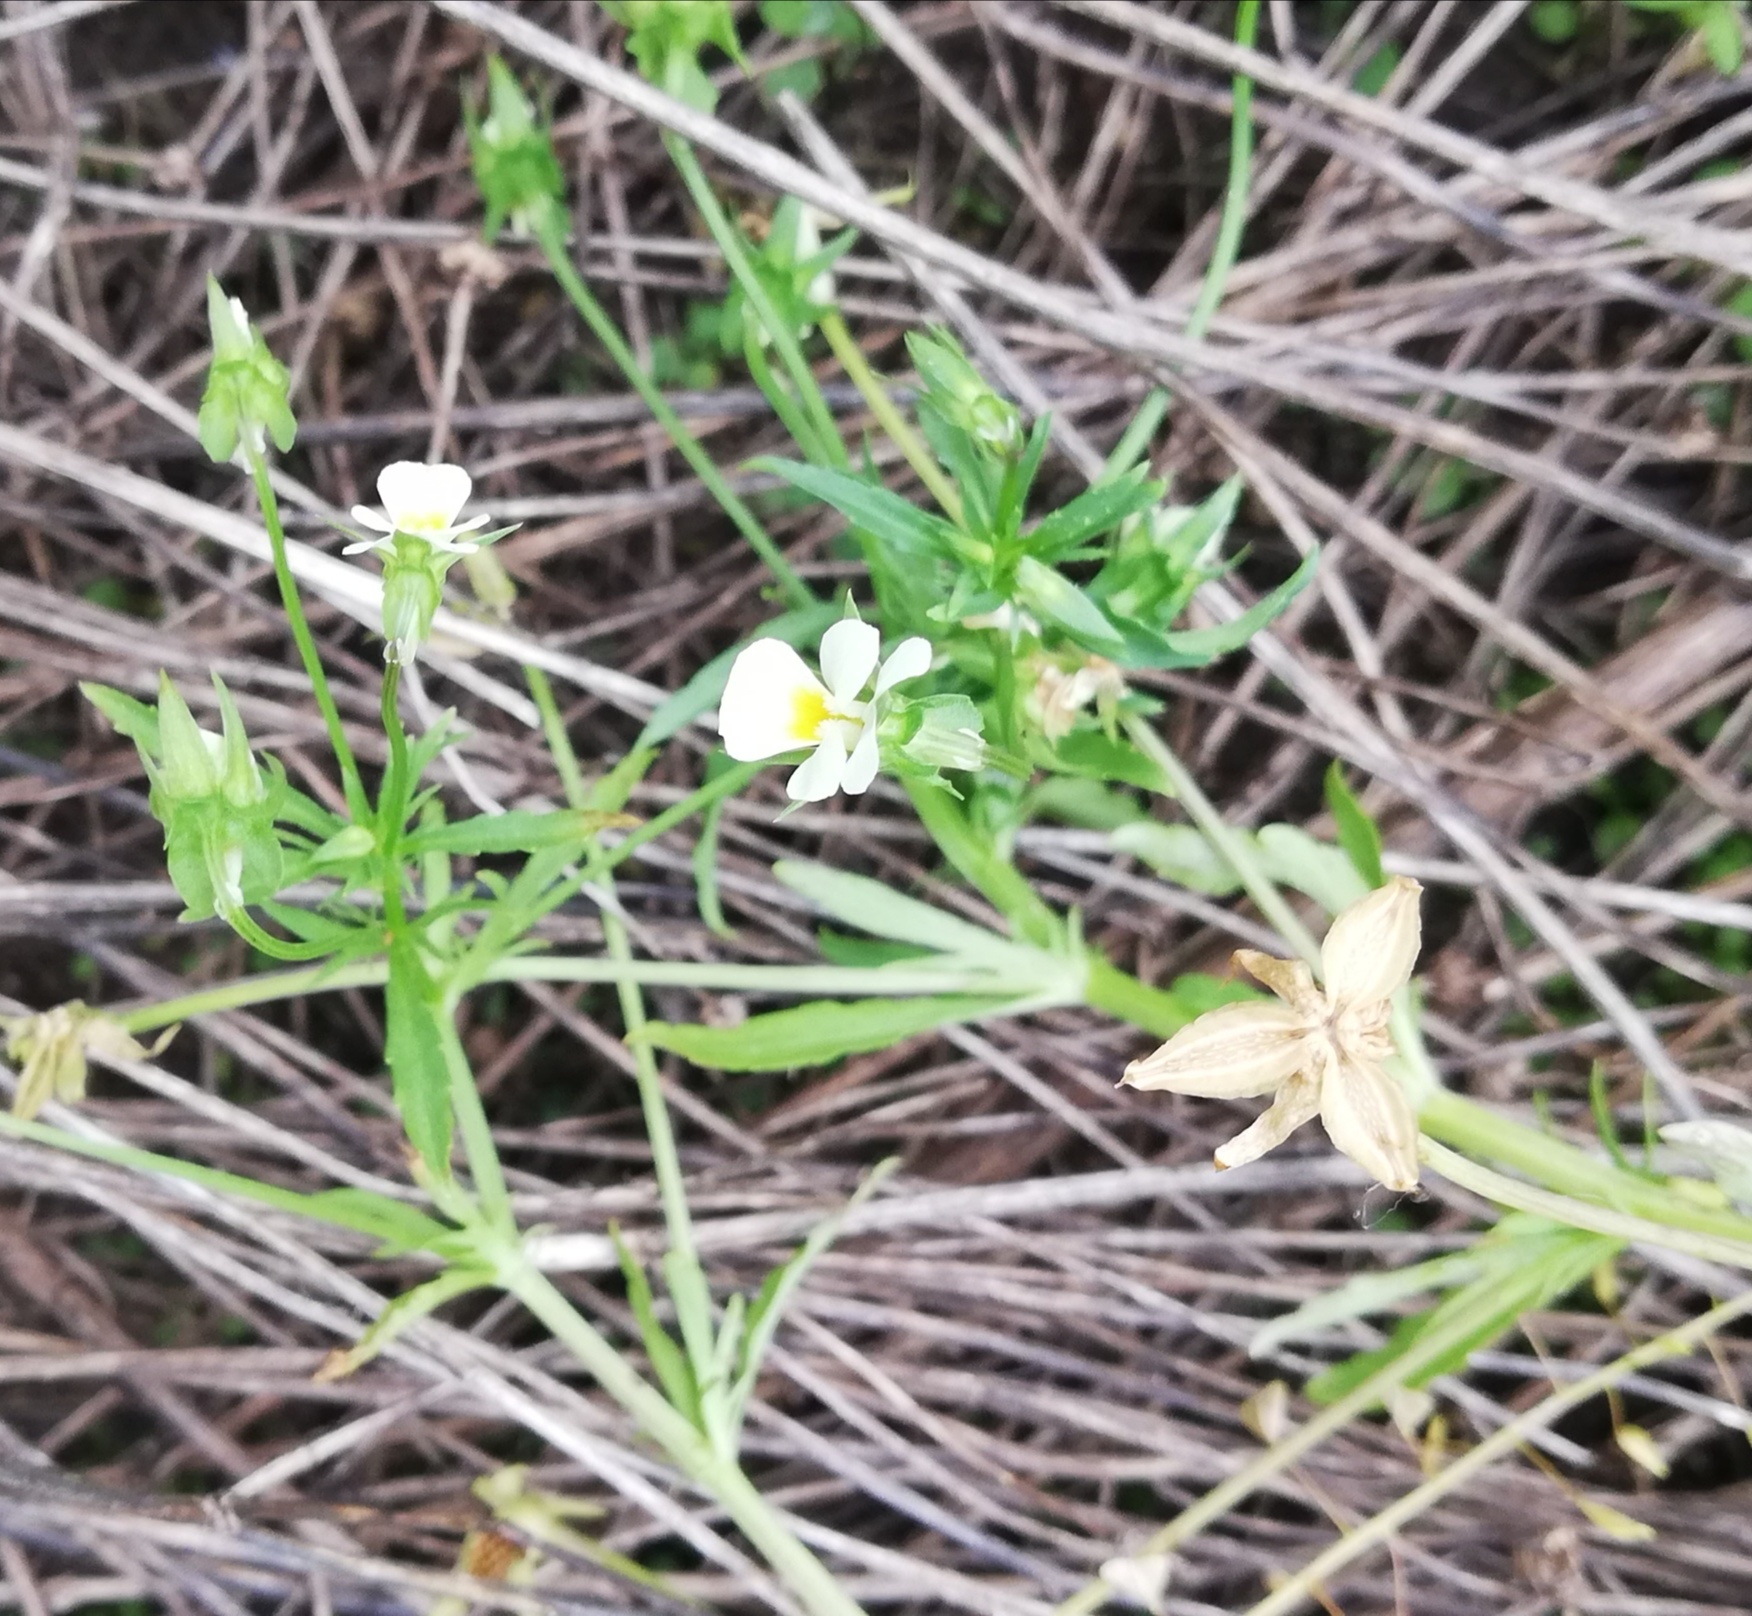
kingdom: Plantae
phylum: Tracheophyta
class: Magnoliopsida
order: Malpighiales
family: Violaceae
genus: Viola
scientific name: Viola arvensis
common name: Field pansy
